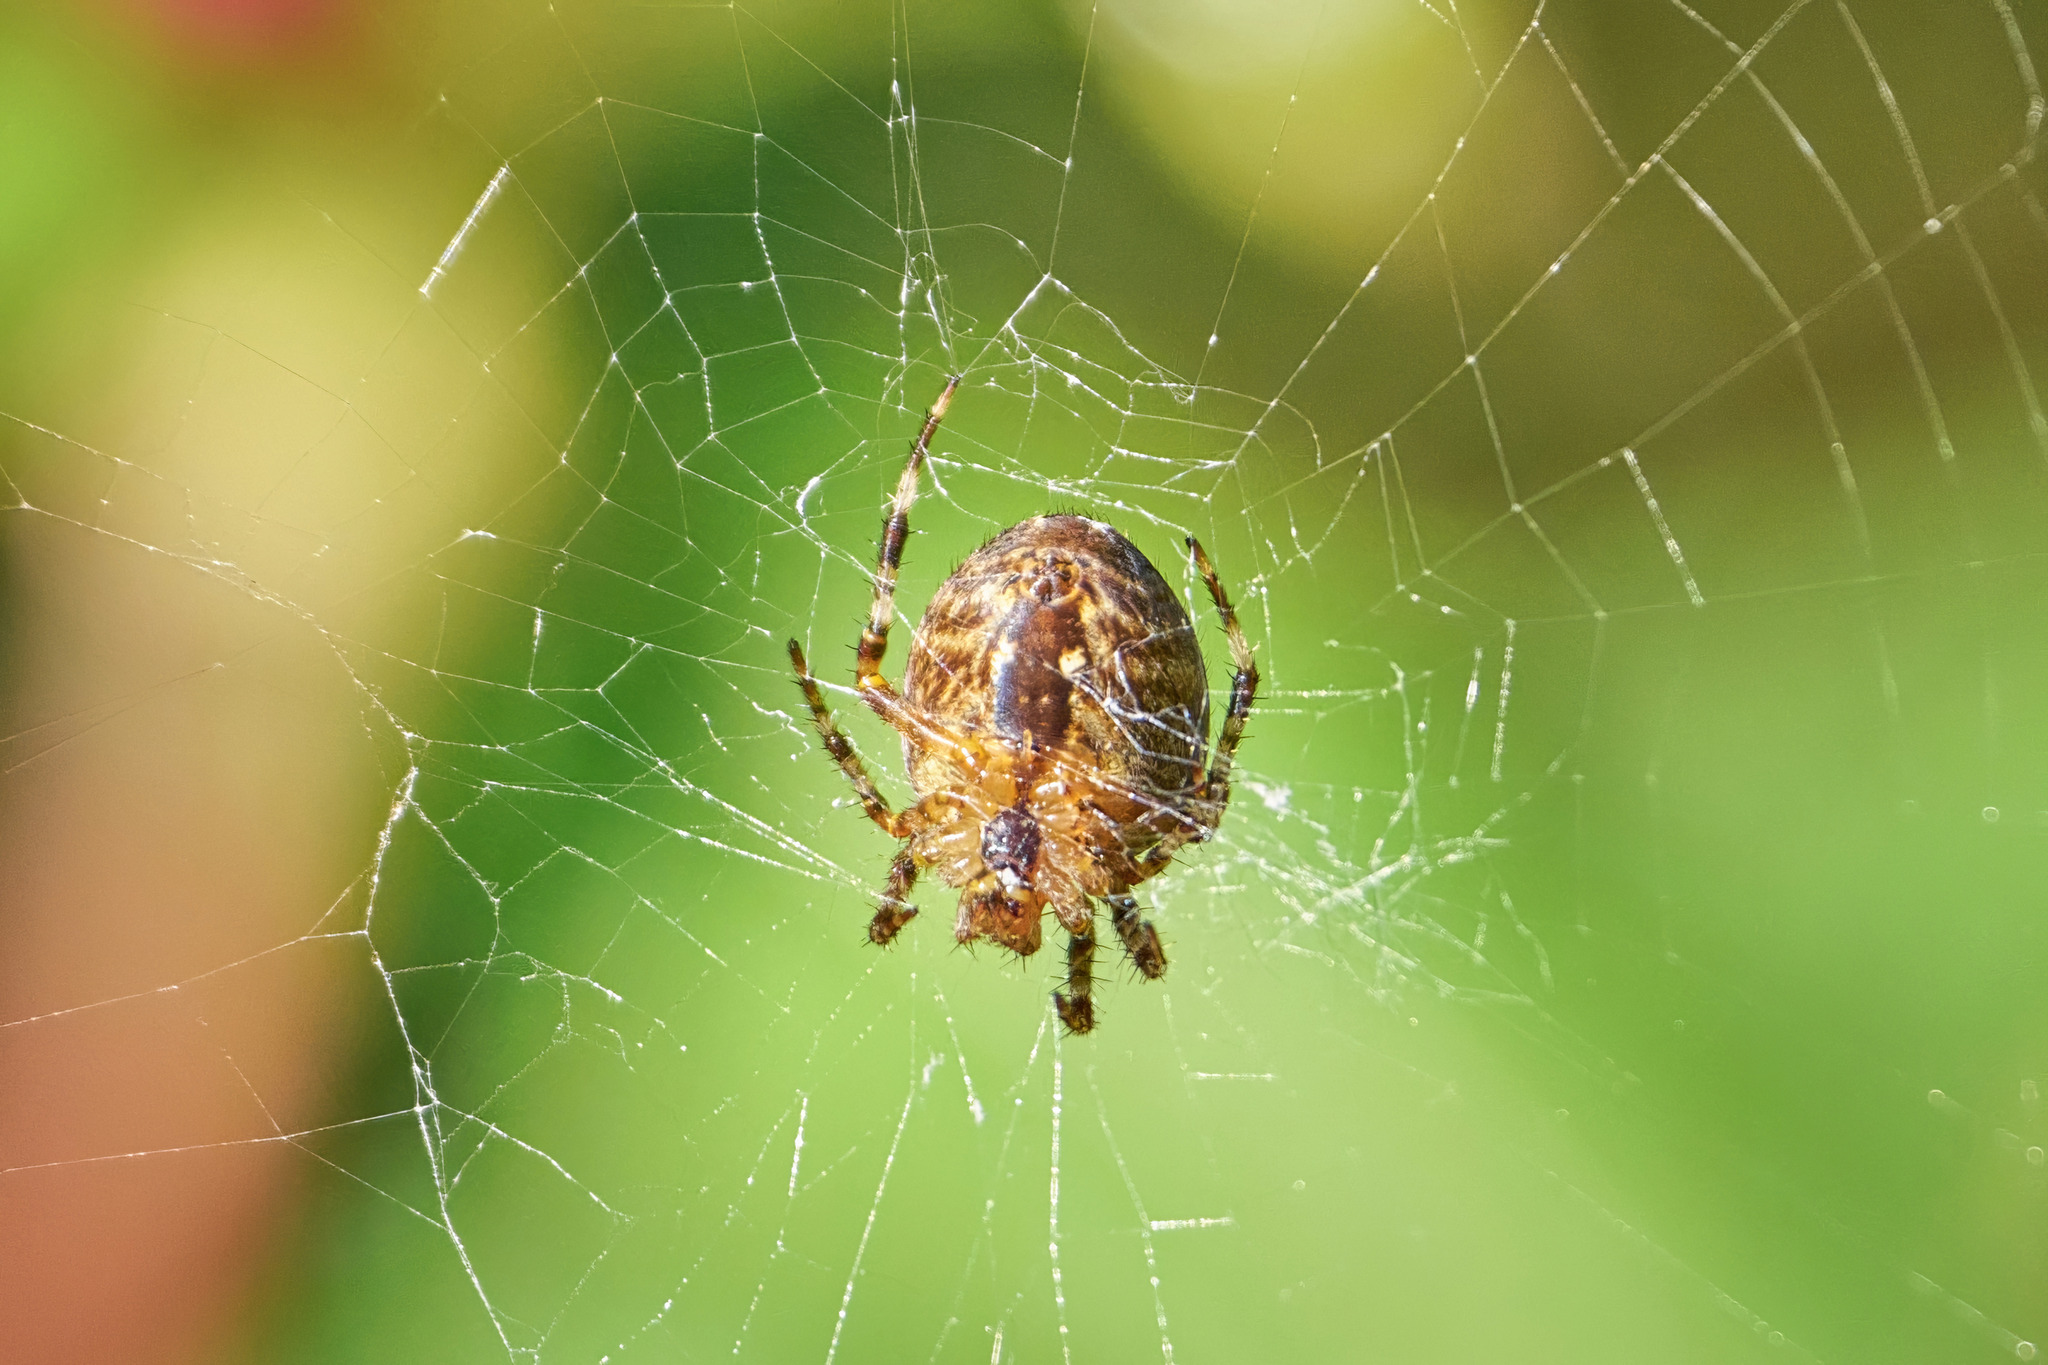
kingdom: Animalia
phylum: Arthropoda
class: Arachnida
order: Araneae
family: Araneidae
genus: Araneus
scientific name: Araneus diadematus
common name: Cross orbweaver
